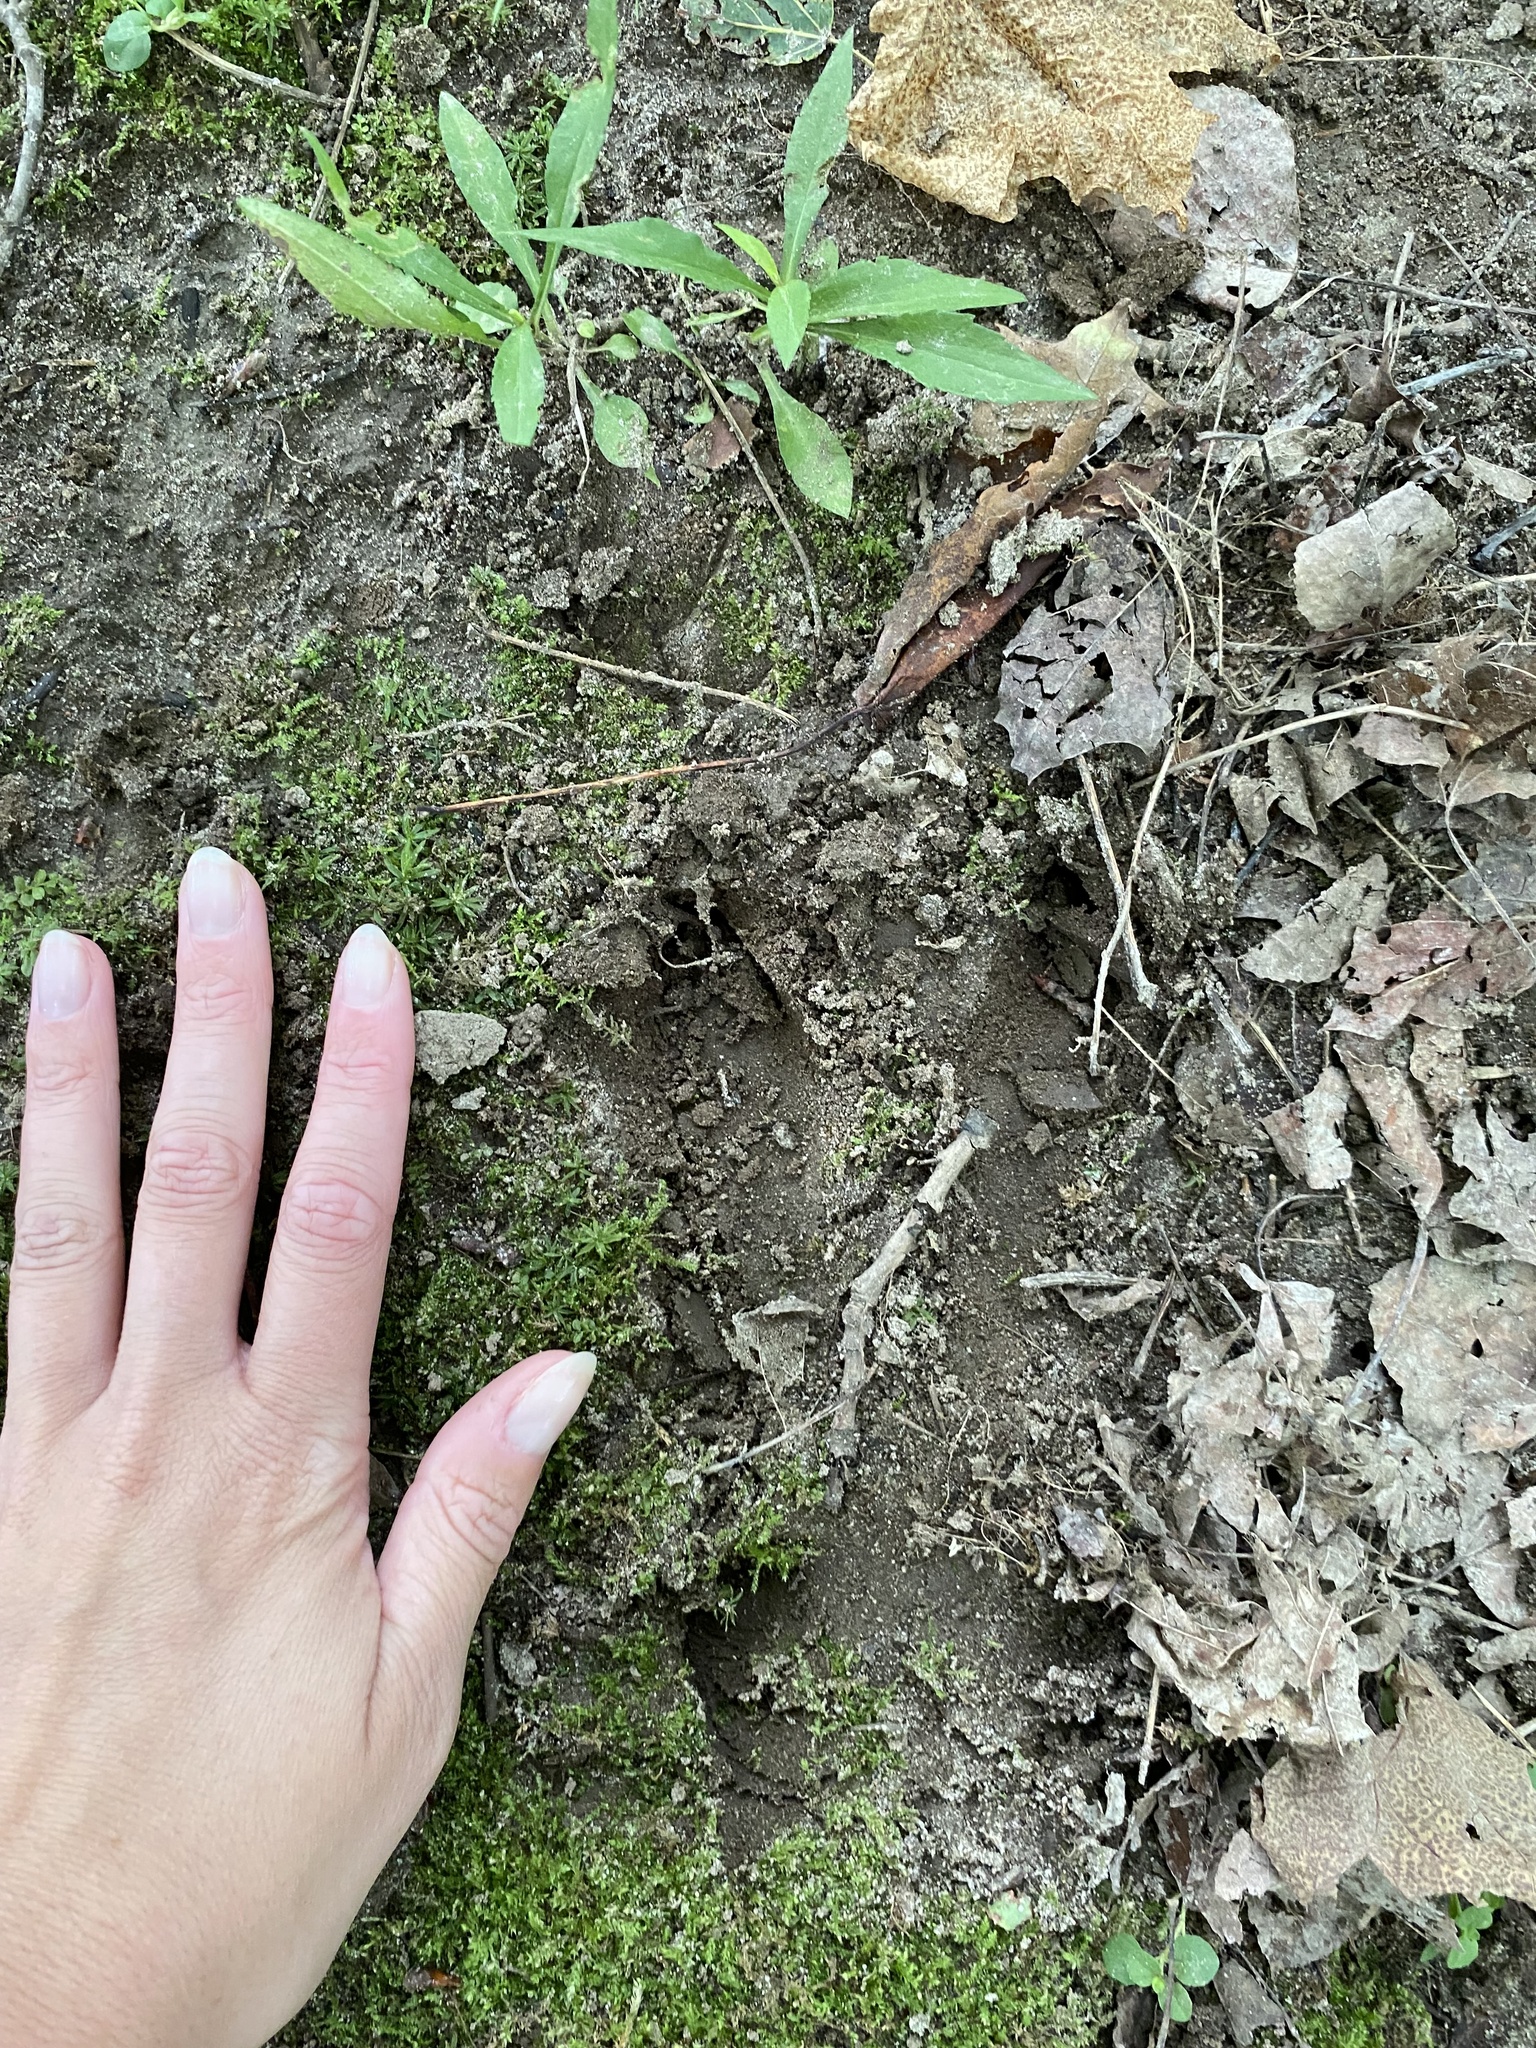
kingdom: Animalia
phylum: Chordata
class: Mammalia
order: Artiodactyla
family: Cervidae
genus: Odocoileus
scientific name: Odocoileus virginianus
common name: White-tailed deer
